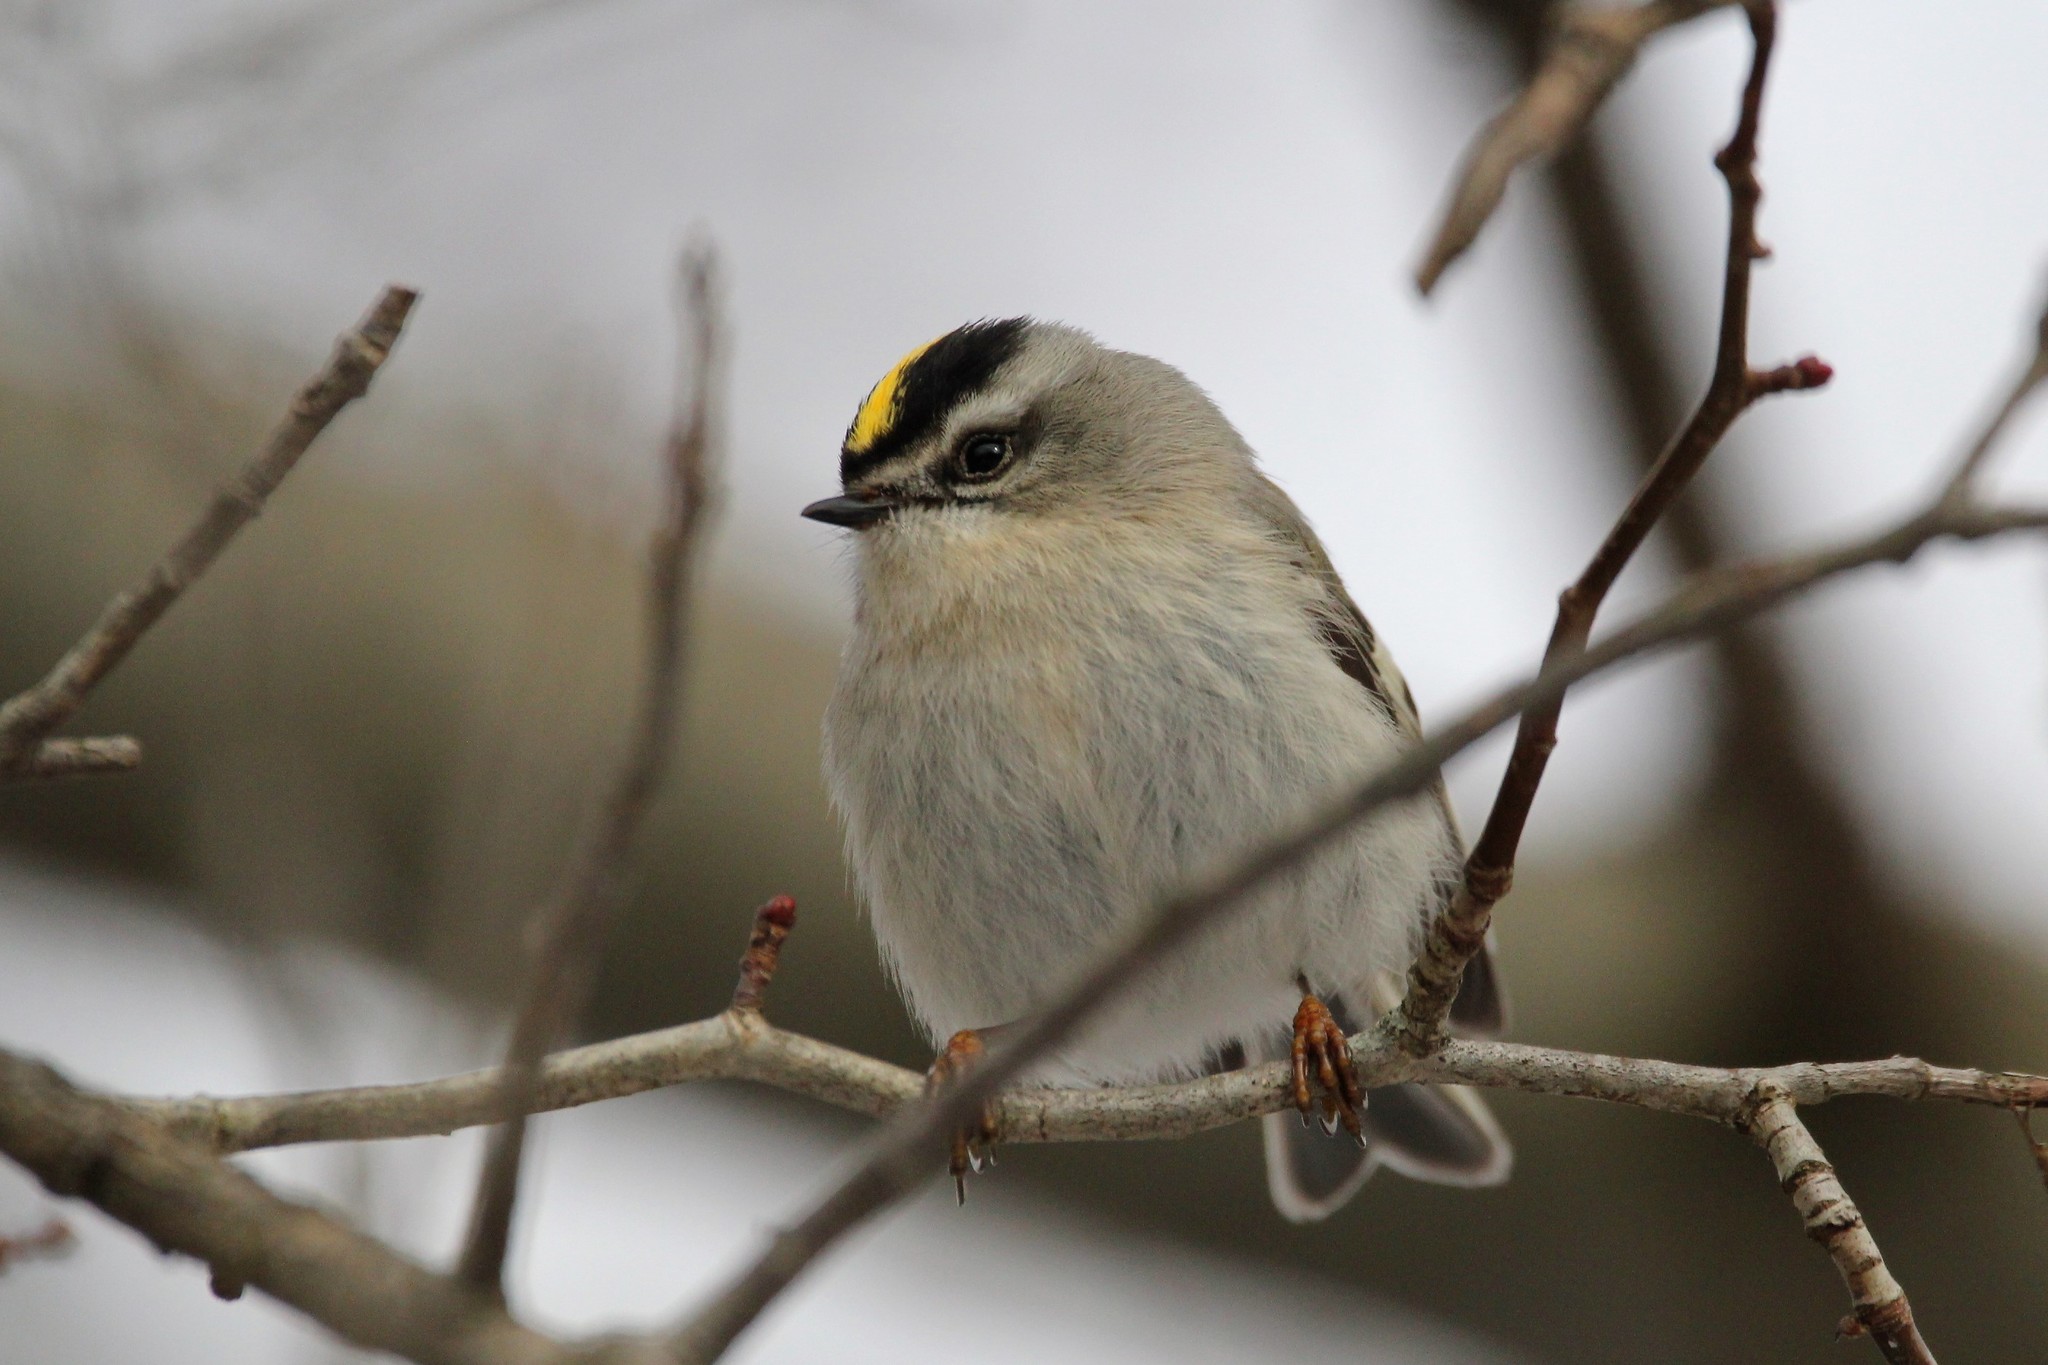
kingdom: Animalia
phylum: Chordata
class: Aves
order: Passeriformes
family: Regulidae
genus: Regulus
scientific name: Regulus satrapa
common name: Golden-crowned kinglet
